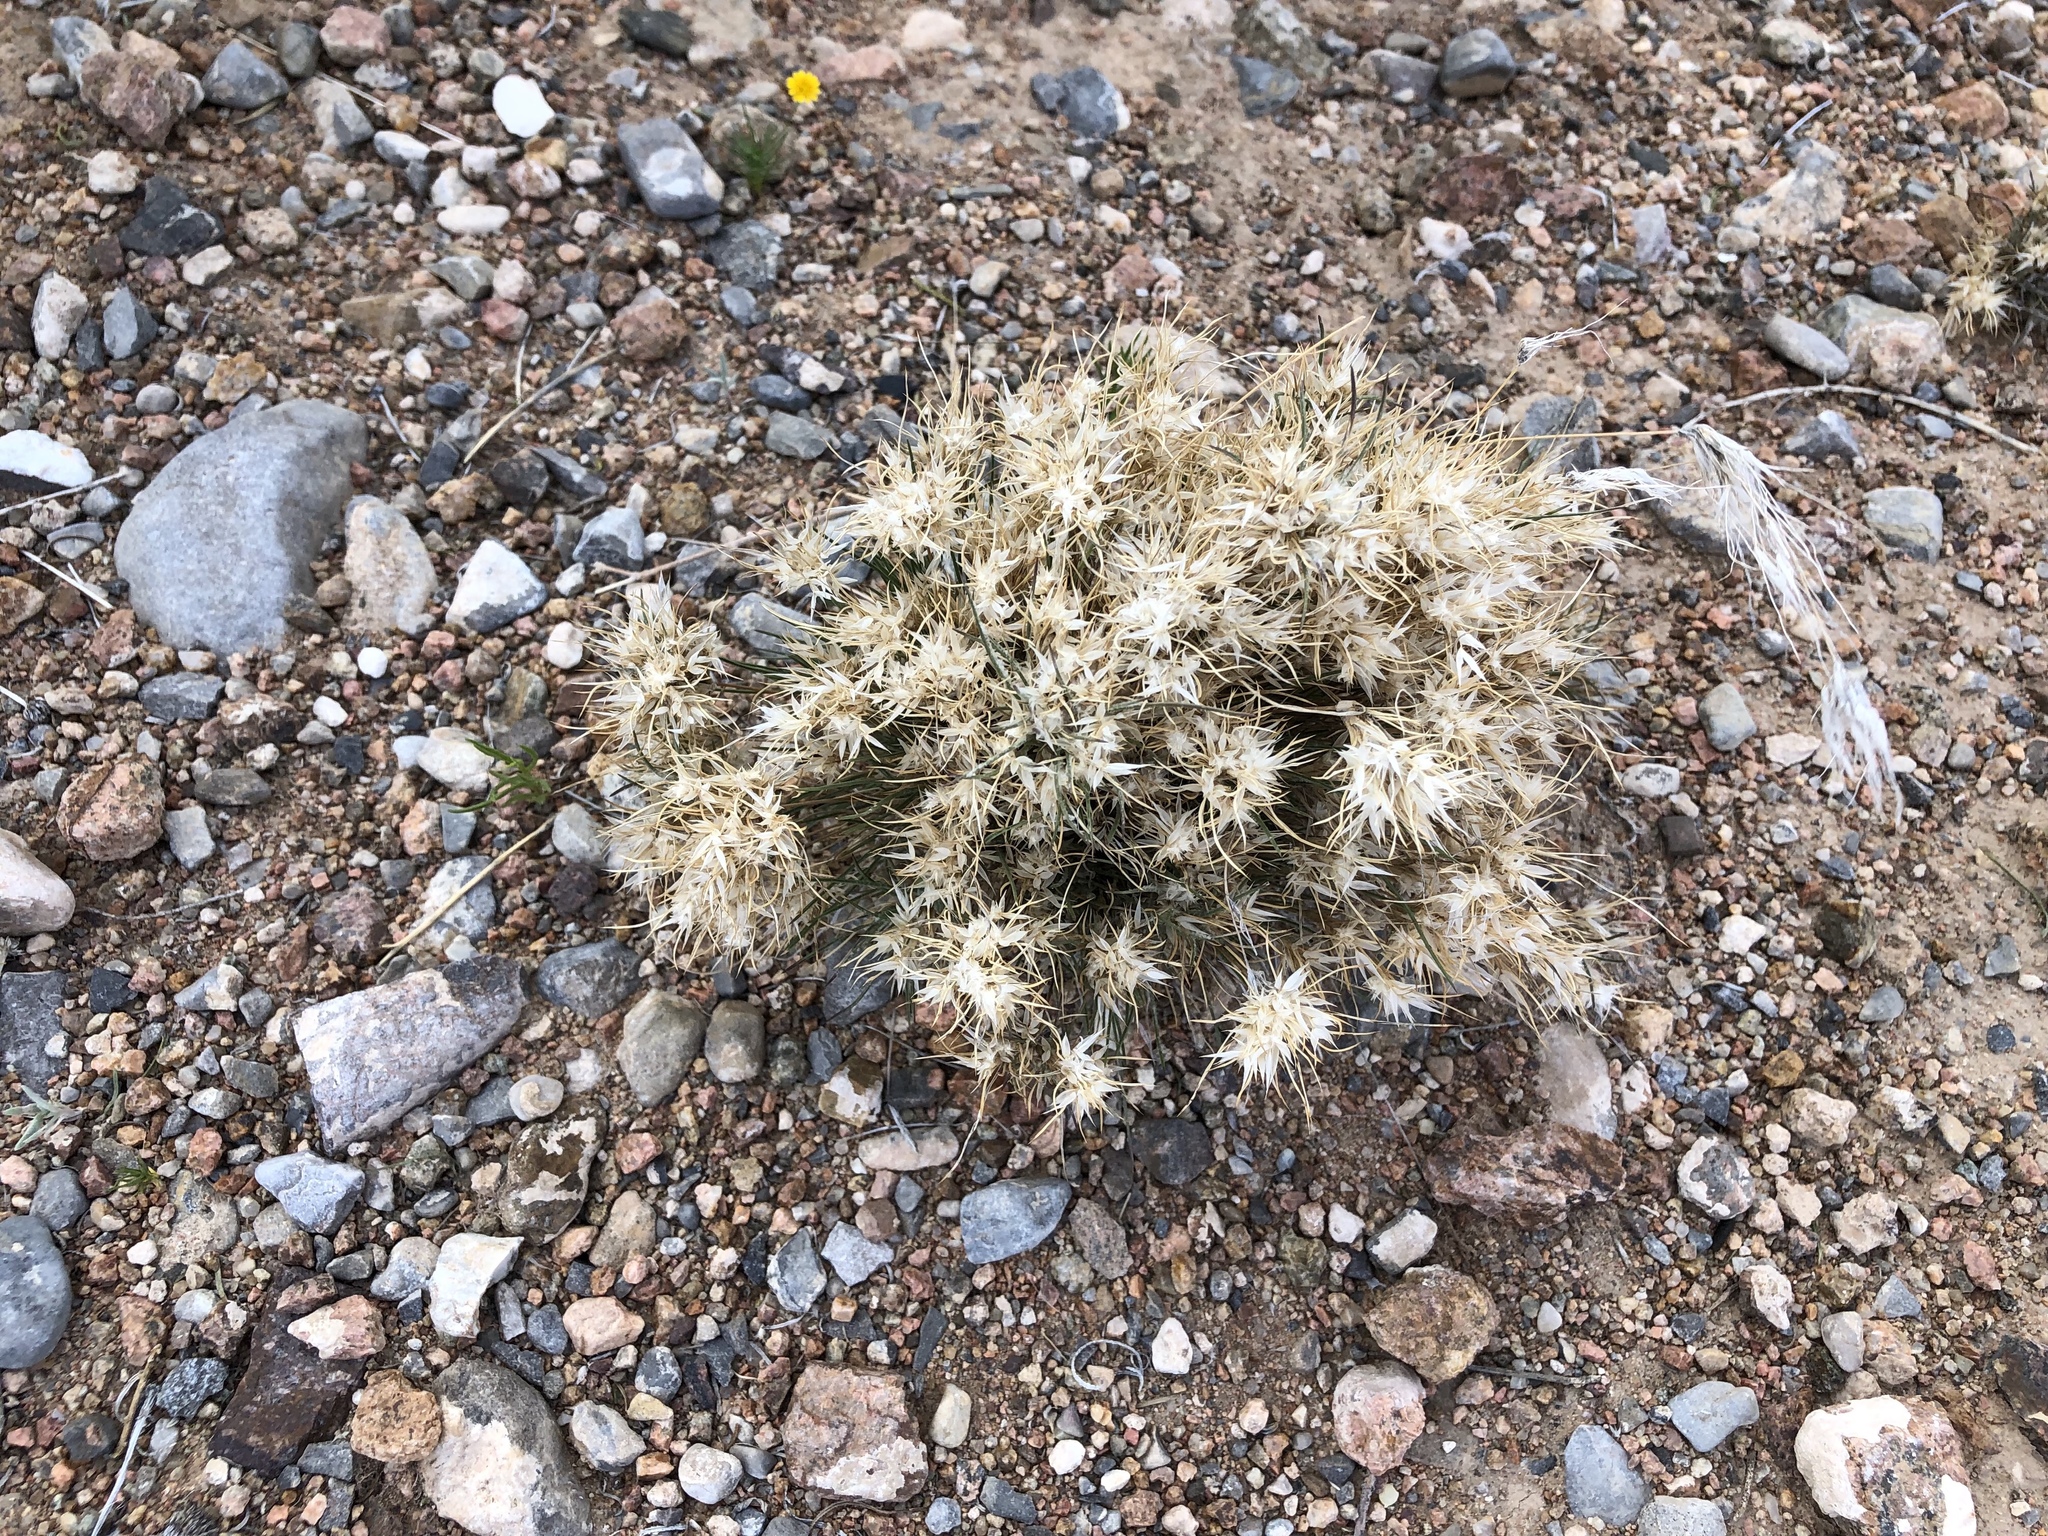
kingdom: Plantae
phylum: Tracheophyta
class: Liliopsida
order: Poales
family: Poaceae
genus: Dasyochloa
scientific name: Dasyochloa pulchella
